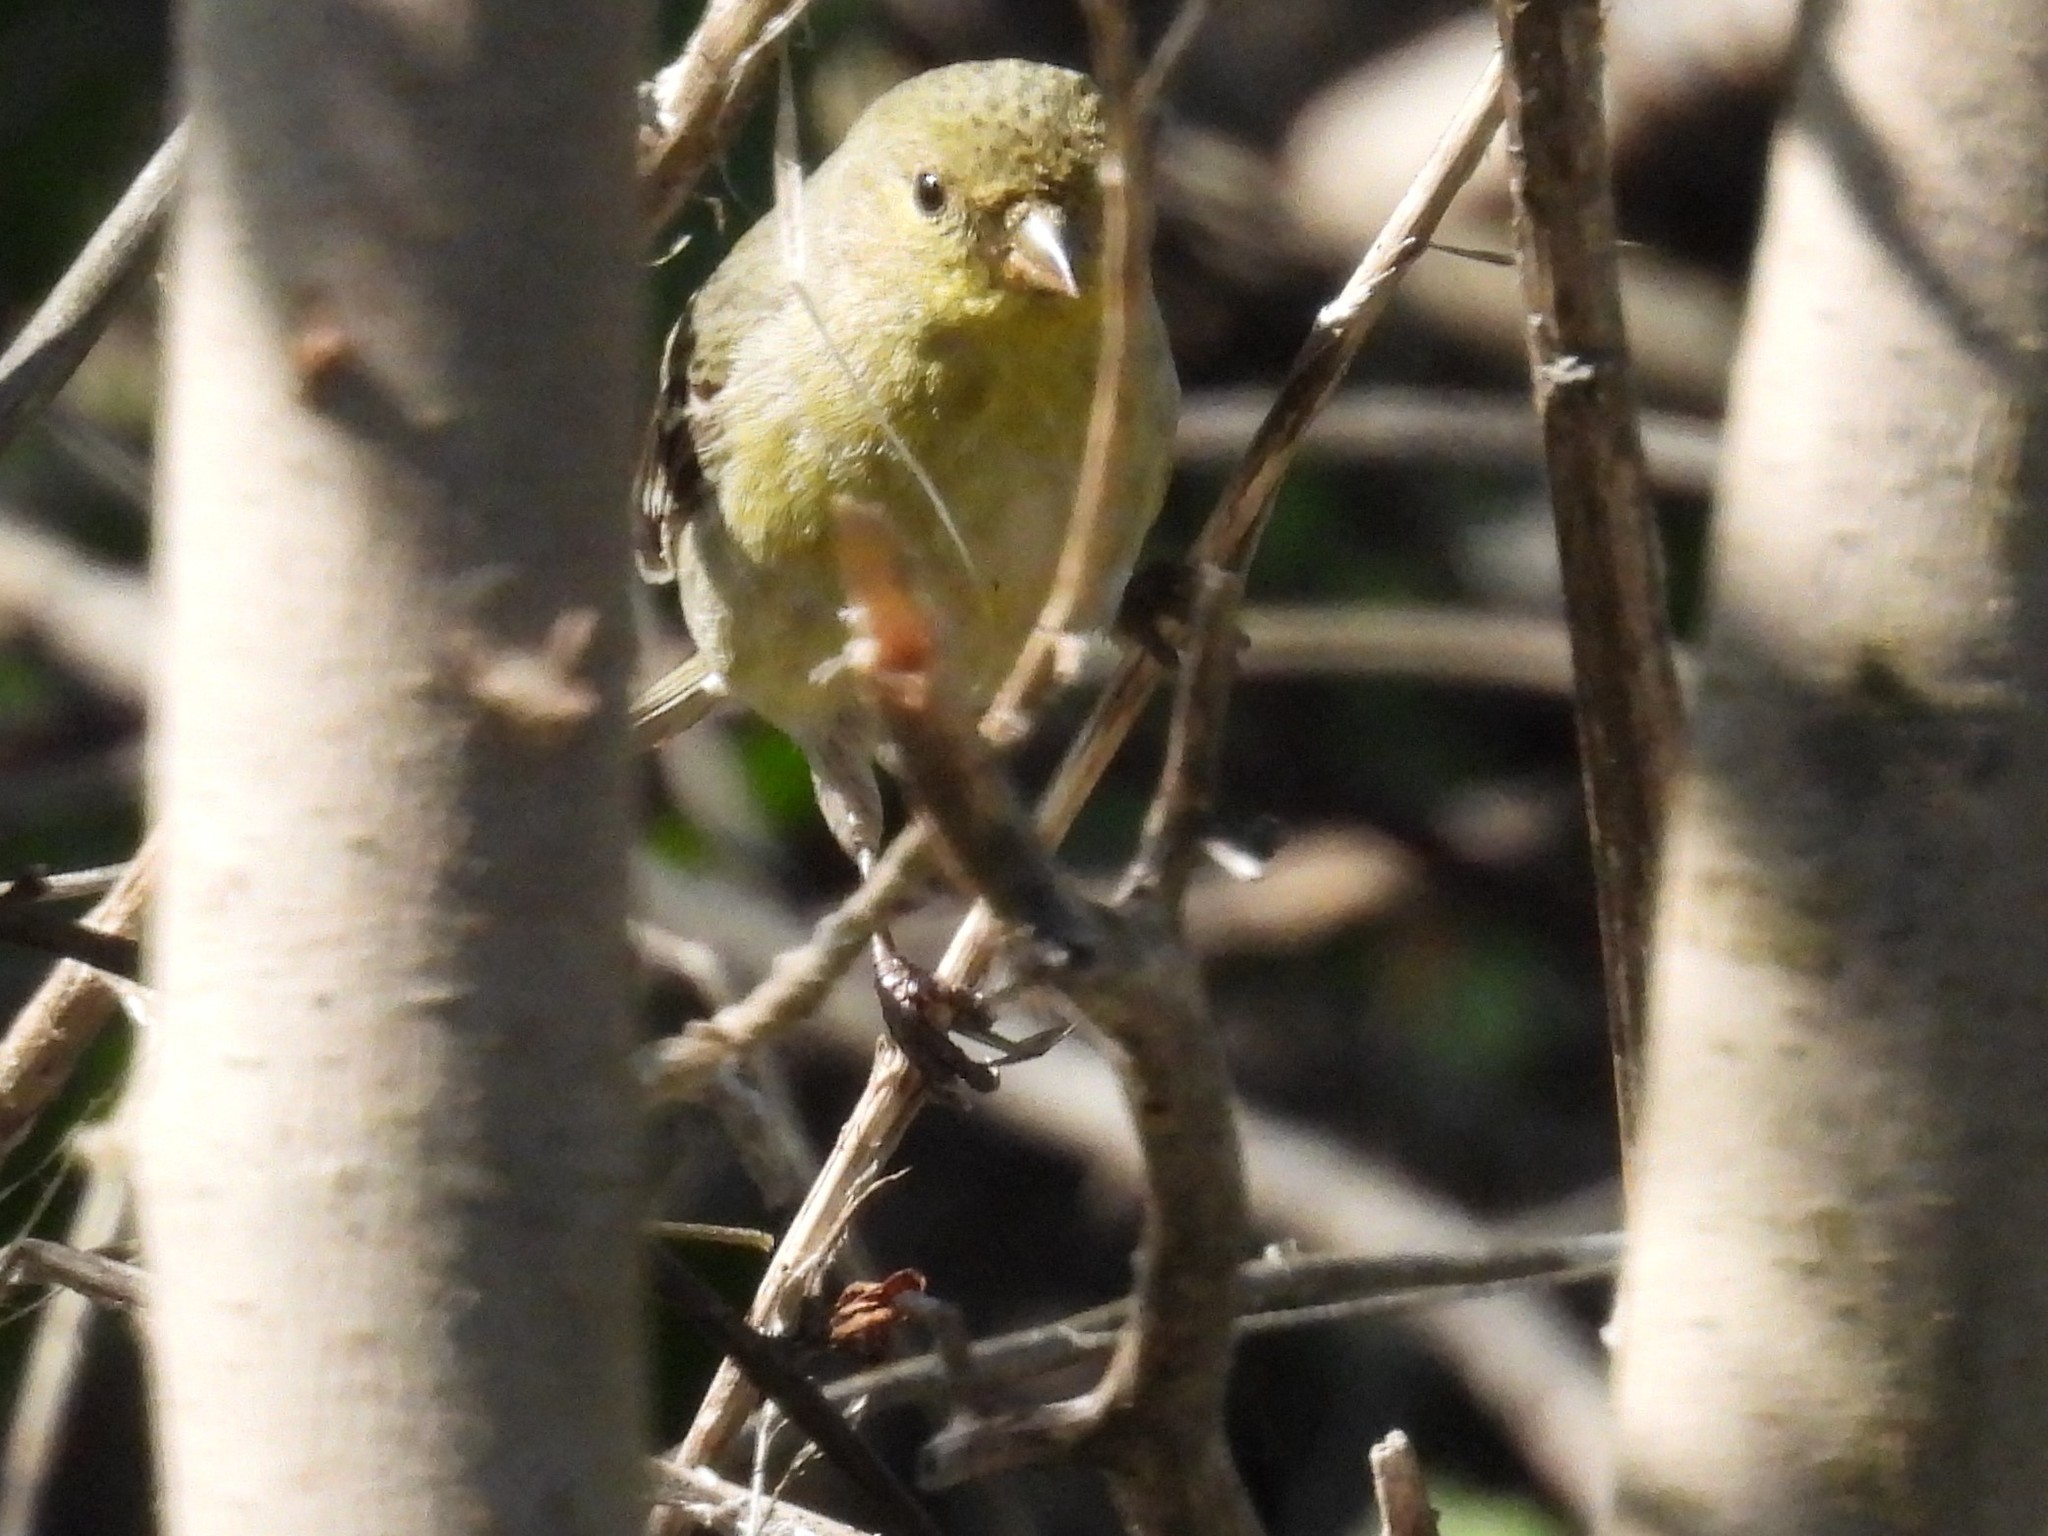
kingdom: Animalia
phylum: Chordata
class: Aves
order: Passeriformes
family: Fringillidae
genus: Spinus
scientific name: Spinus psaltria
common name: Lesser goldfinch
